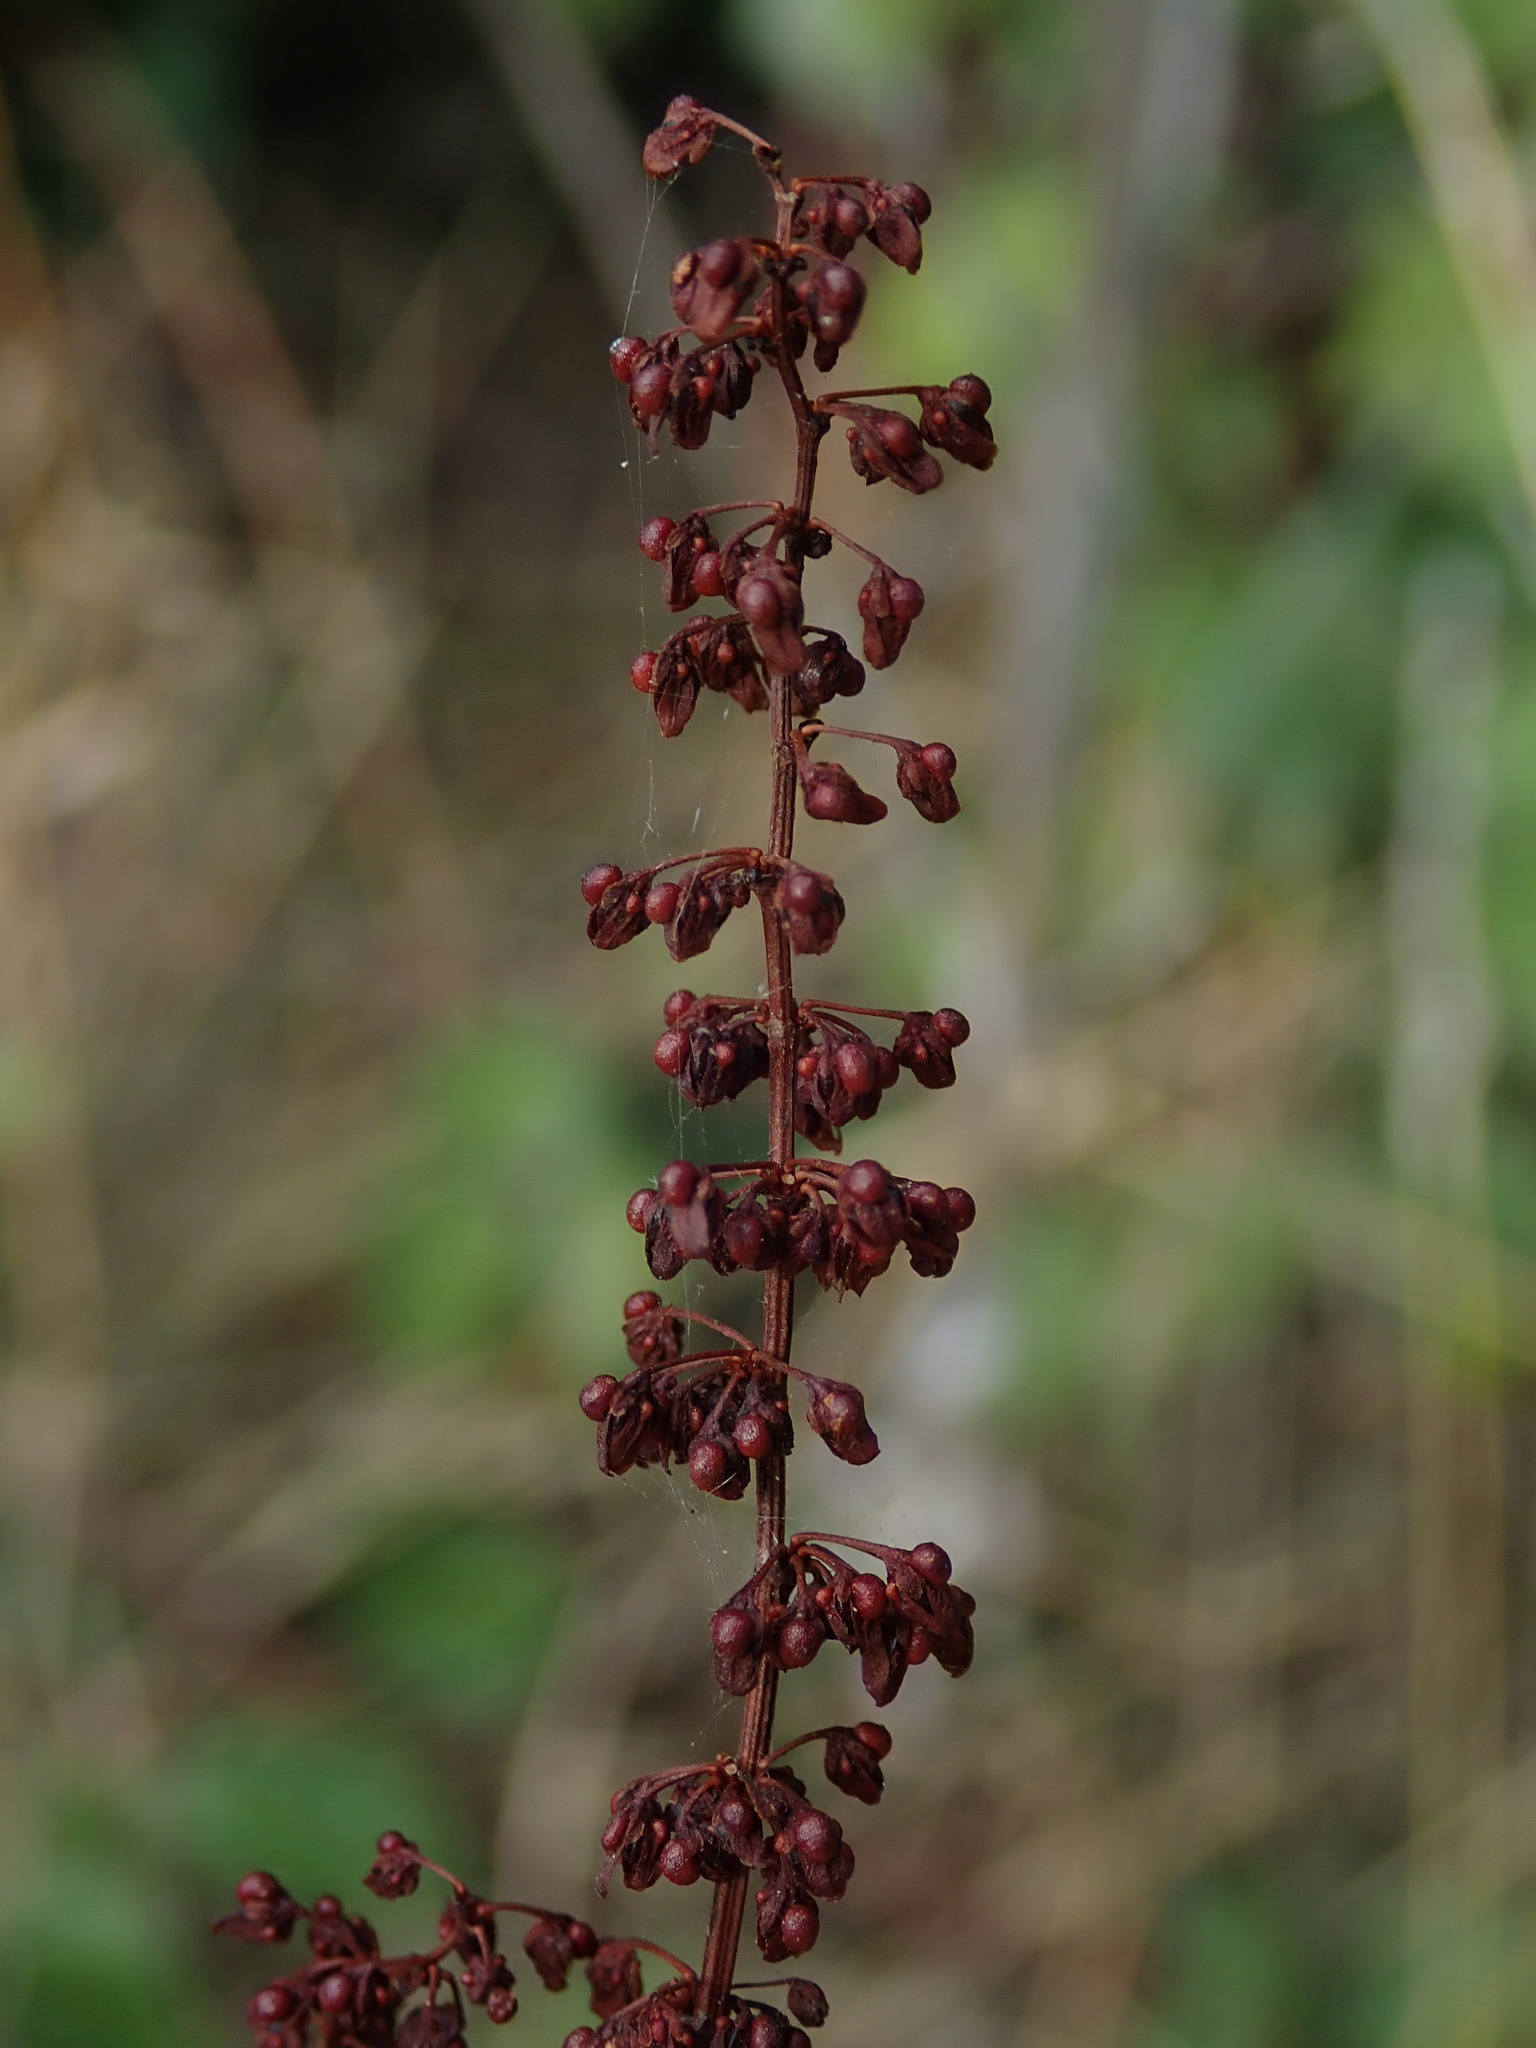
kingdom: Plantae
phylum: Tracheophyta
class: Magnoliopsida
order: Caryophyllales
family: Polygonaceae
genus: Rumex
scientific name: Rumex sanguineus
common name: Wood dock
